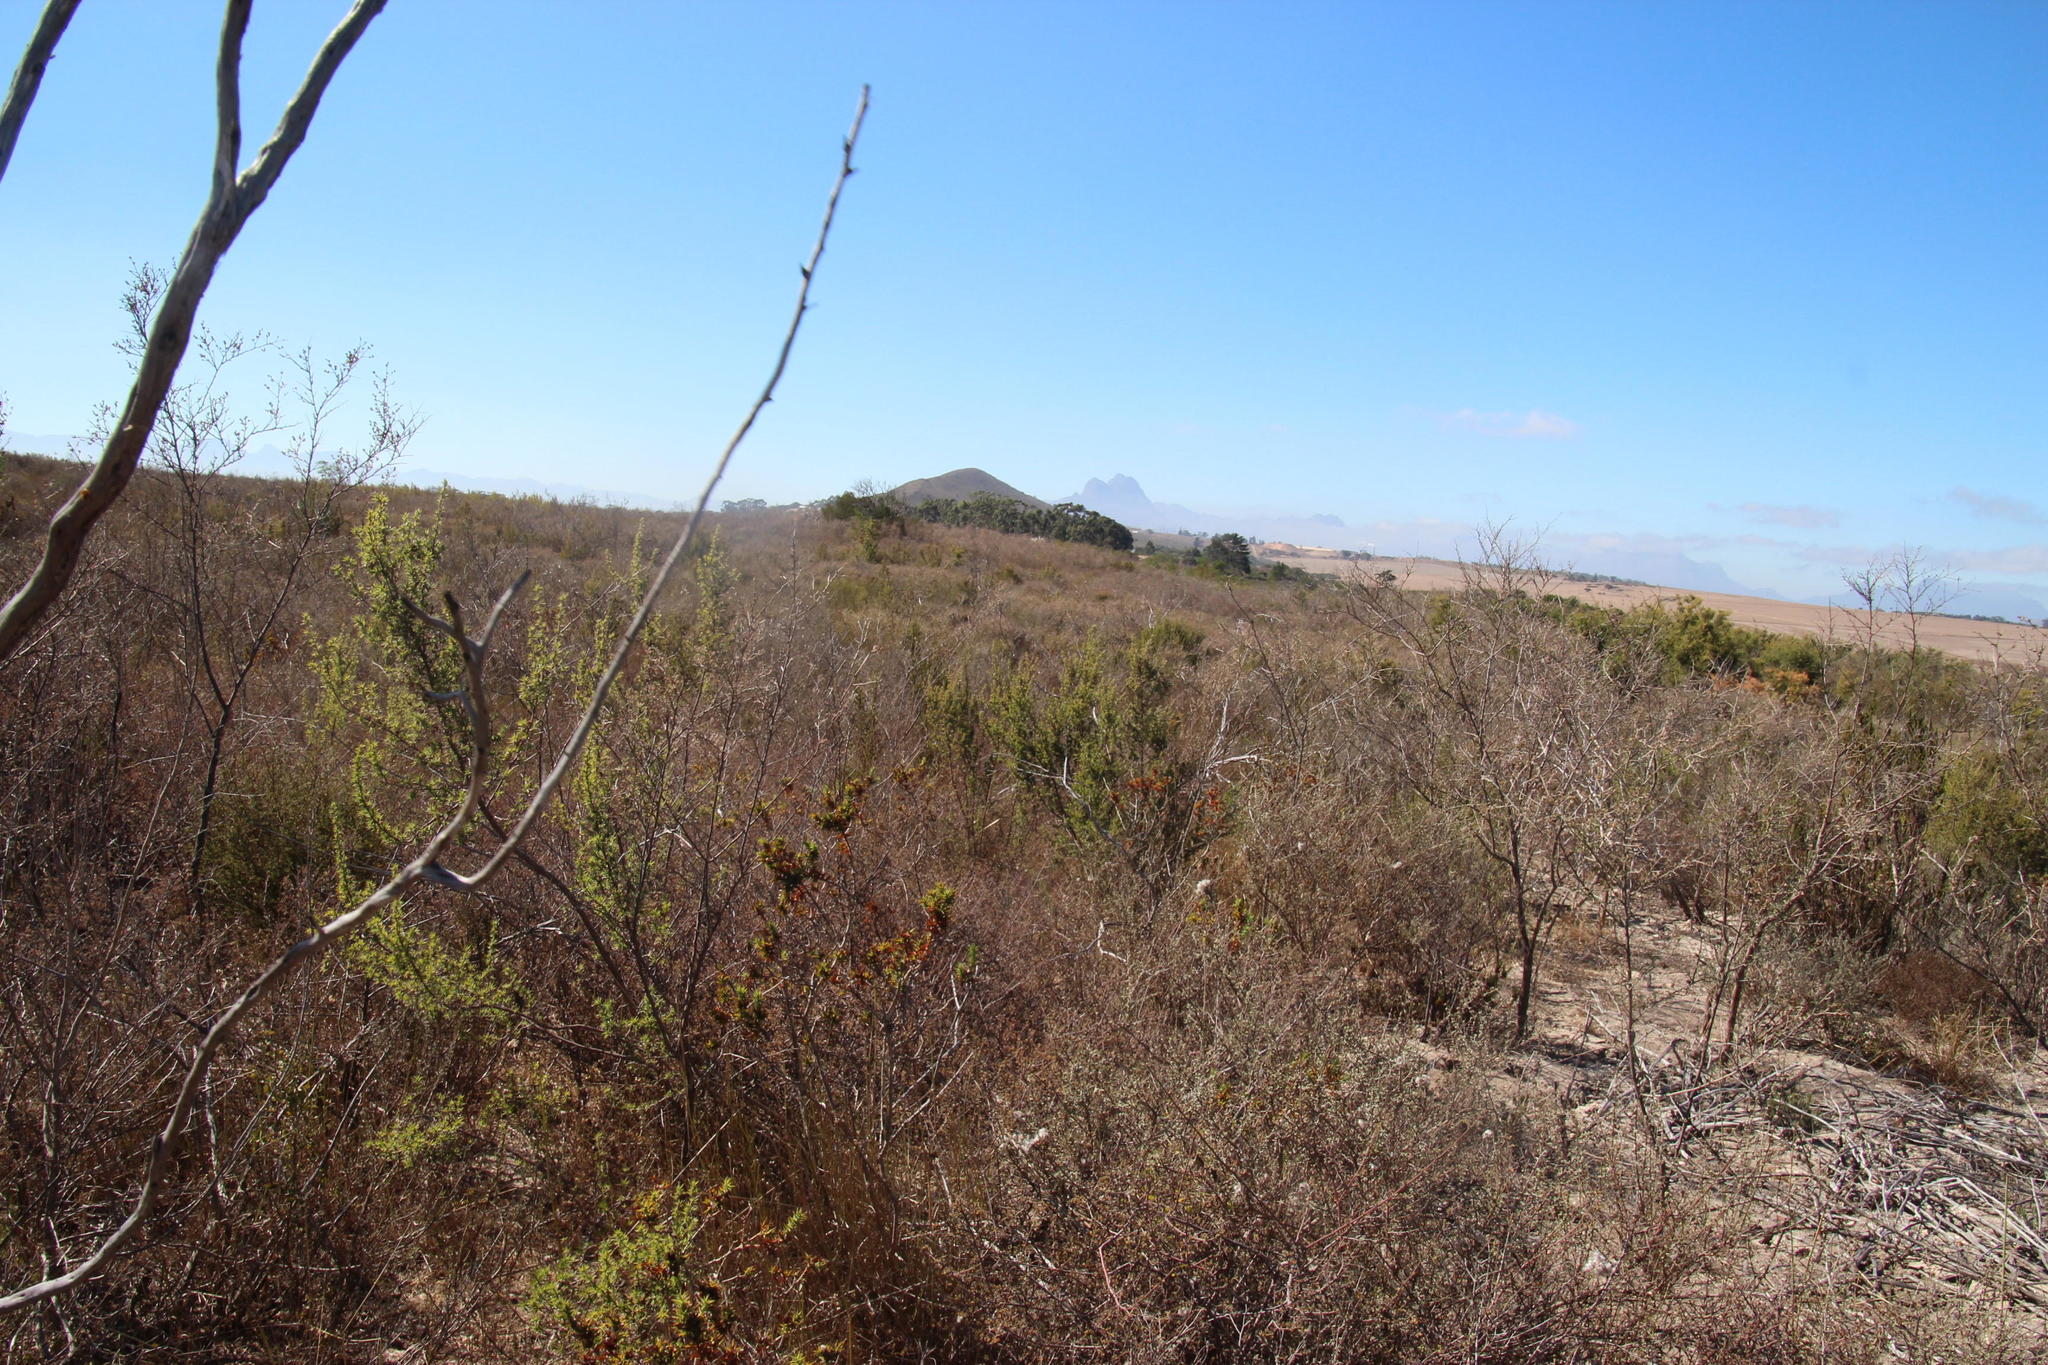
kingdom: Plantae
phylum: Tracheophyta
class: Magnoliopsida
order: Rosales
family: Rosaceae
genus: Cliffortia
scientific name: Cliffortia ruscifolia
